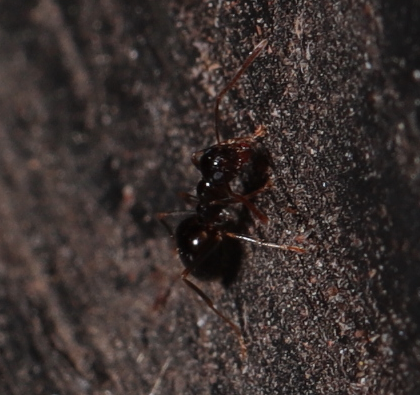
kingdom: Animalia
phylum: Arthropoda
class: Insecta
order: Hymenoptera
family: Formicidae
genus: Prenolepis
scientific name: Prenolepis imparis
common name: Small honey ant
